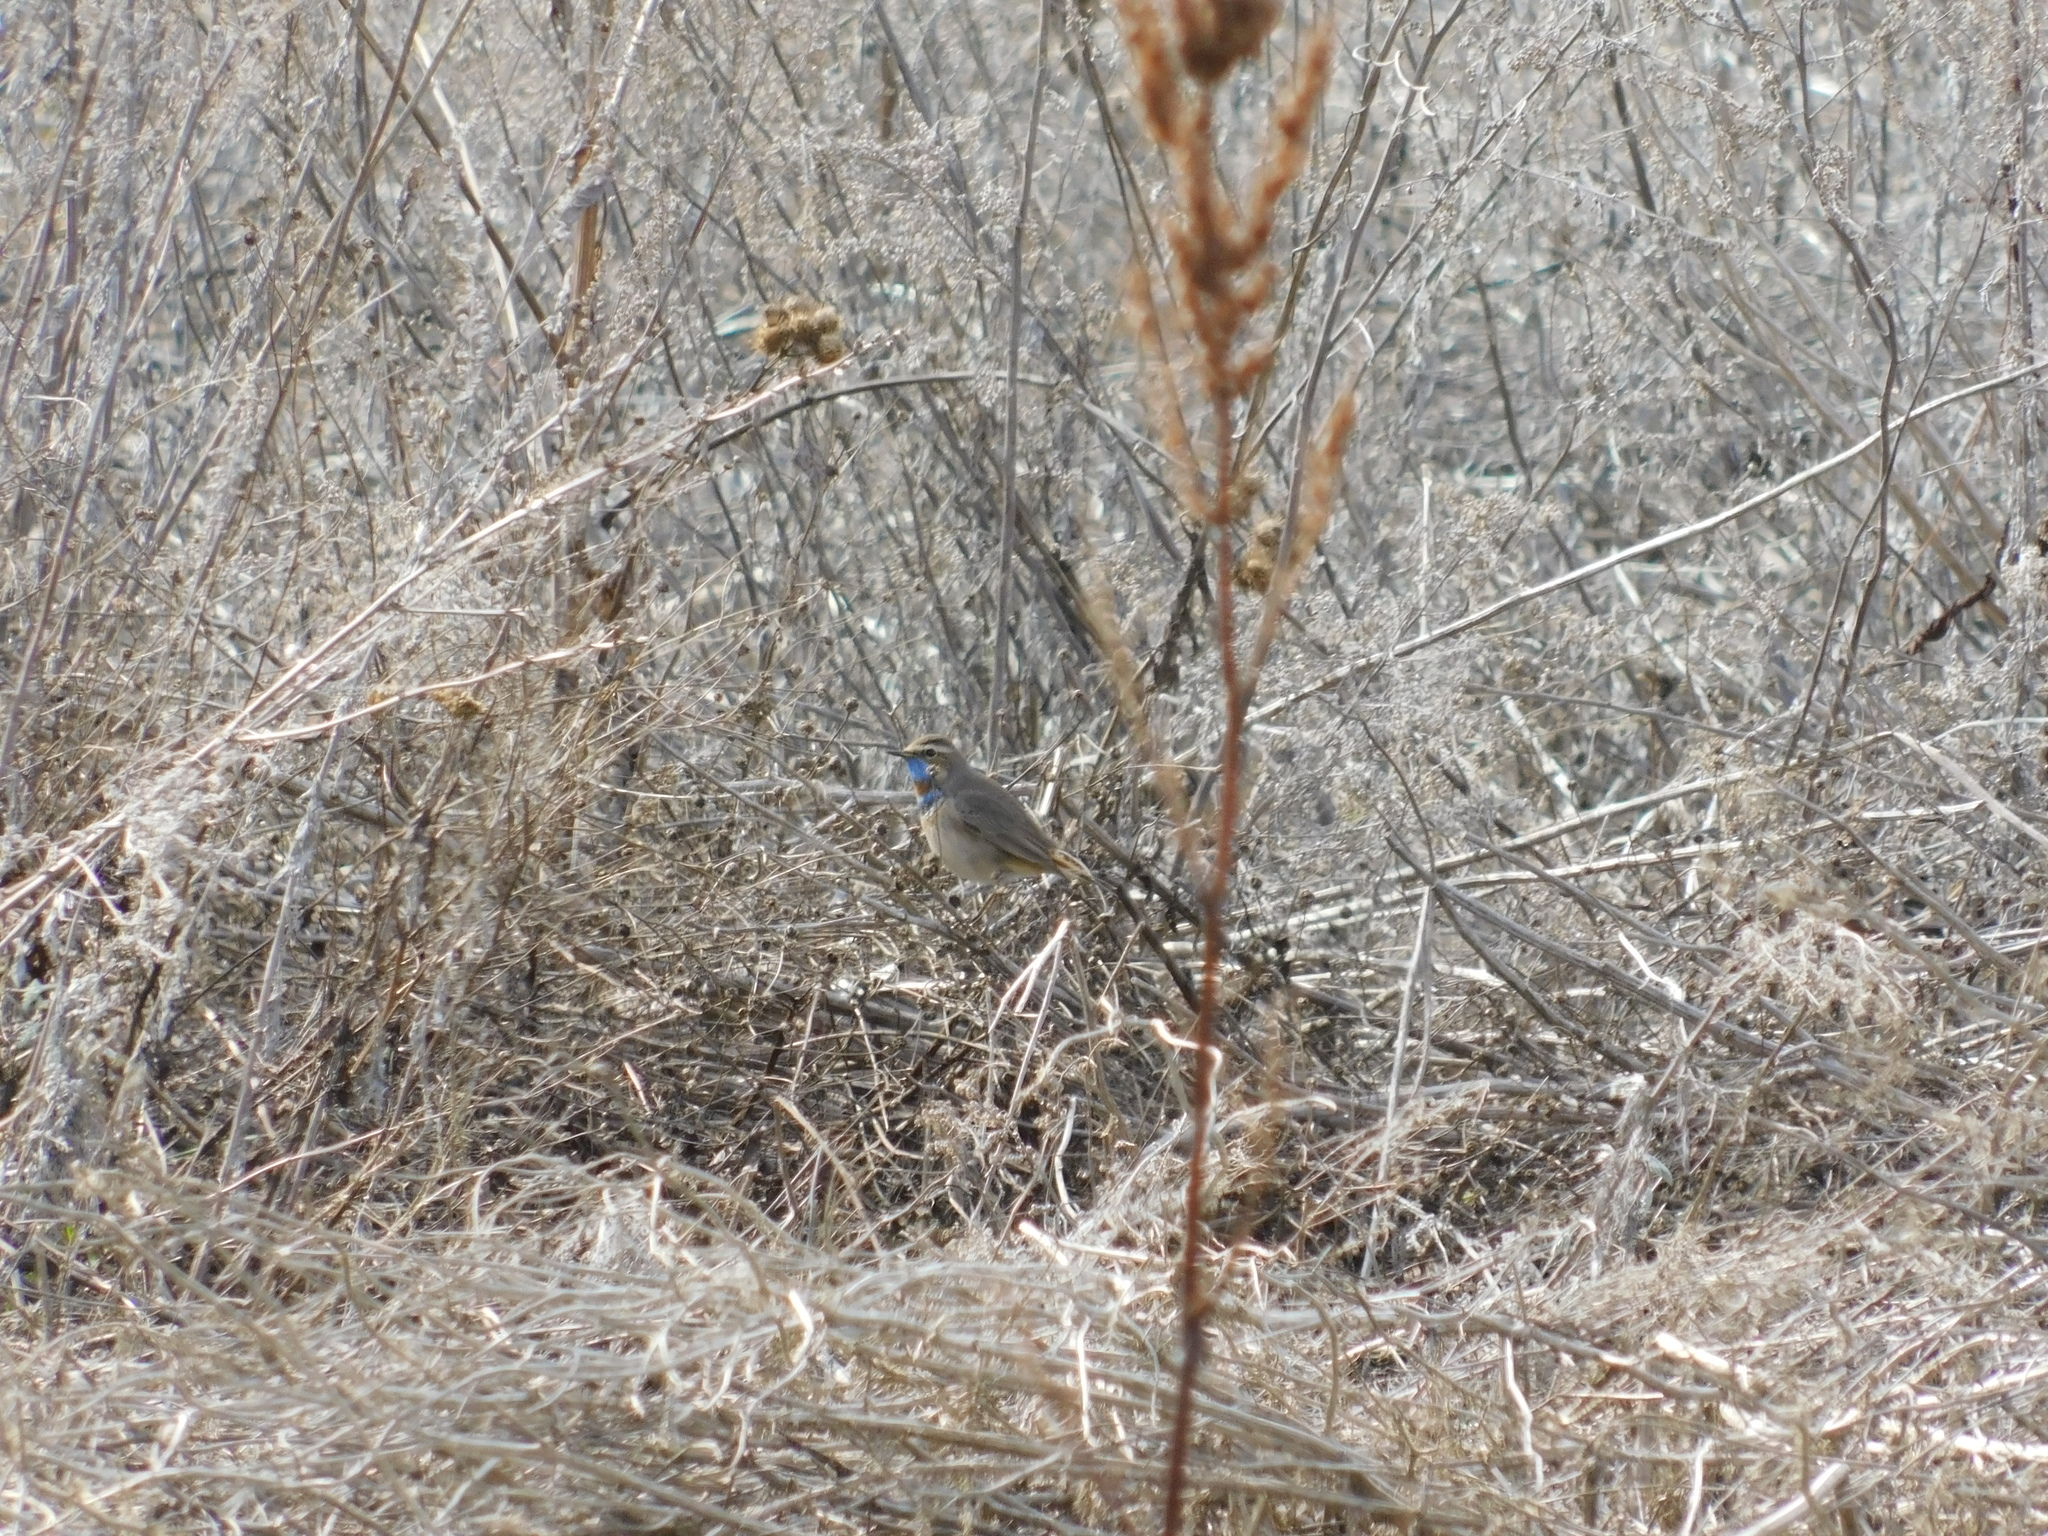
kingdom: Animalia
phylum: Chordata
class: Aves
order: Passeriformes
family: Muscicapidae
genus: Luscinia
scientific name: Luscinia svecica
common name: Bluethroat
